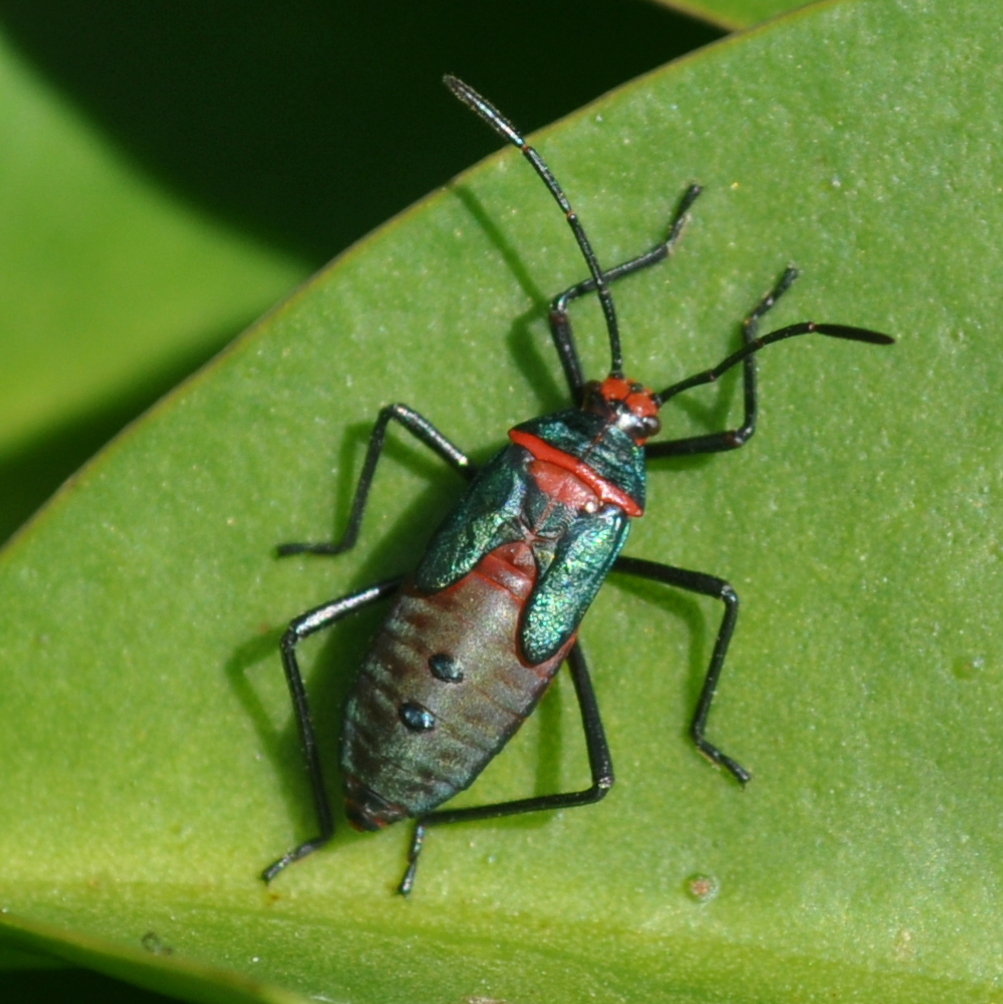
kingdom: Animalia
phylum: Arthropoda
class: Insecta
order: Hemiptera
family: Coreidae
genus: Sphictyrtus
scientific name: Sphictyrtus chrysis
